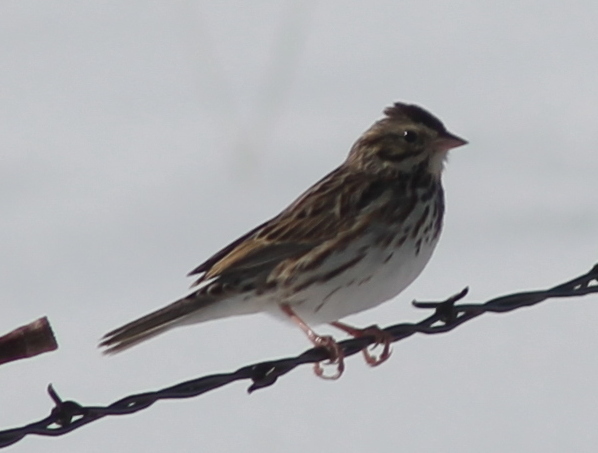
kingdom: Animalia
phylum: Chordata
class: Aves
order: Passeriformes
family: Passerellidae
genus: Passerculus
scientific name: Passerculus sandwichensis
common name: Savannah sparrow
